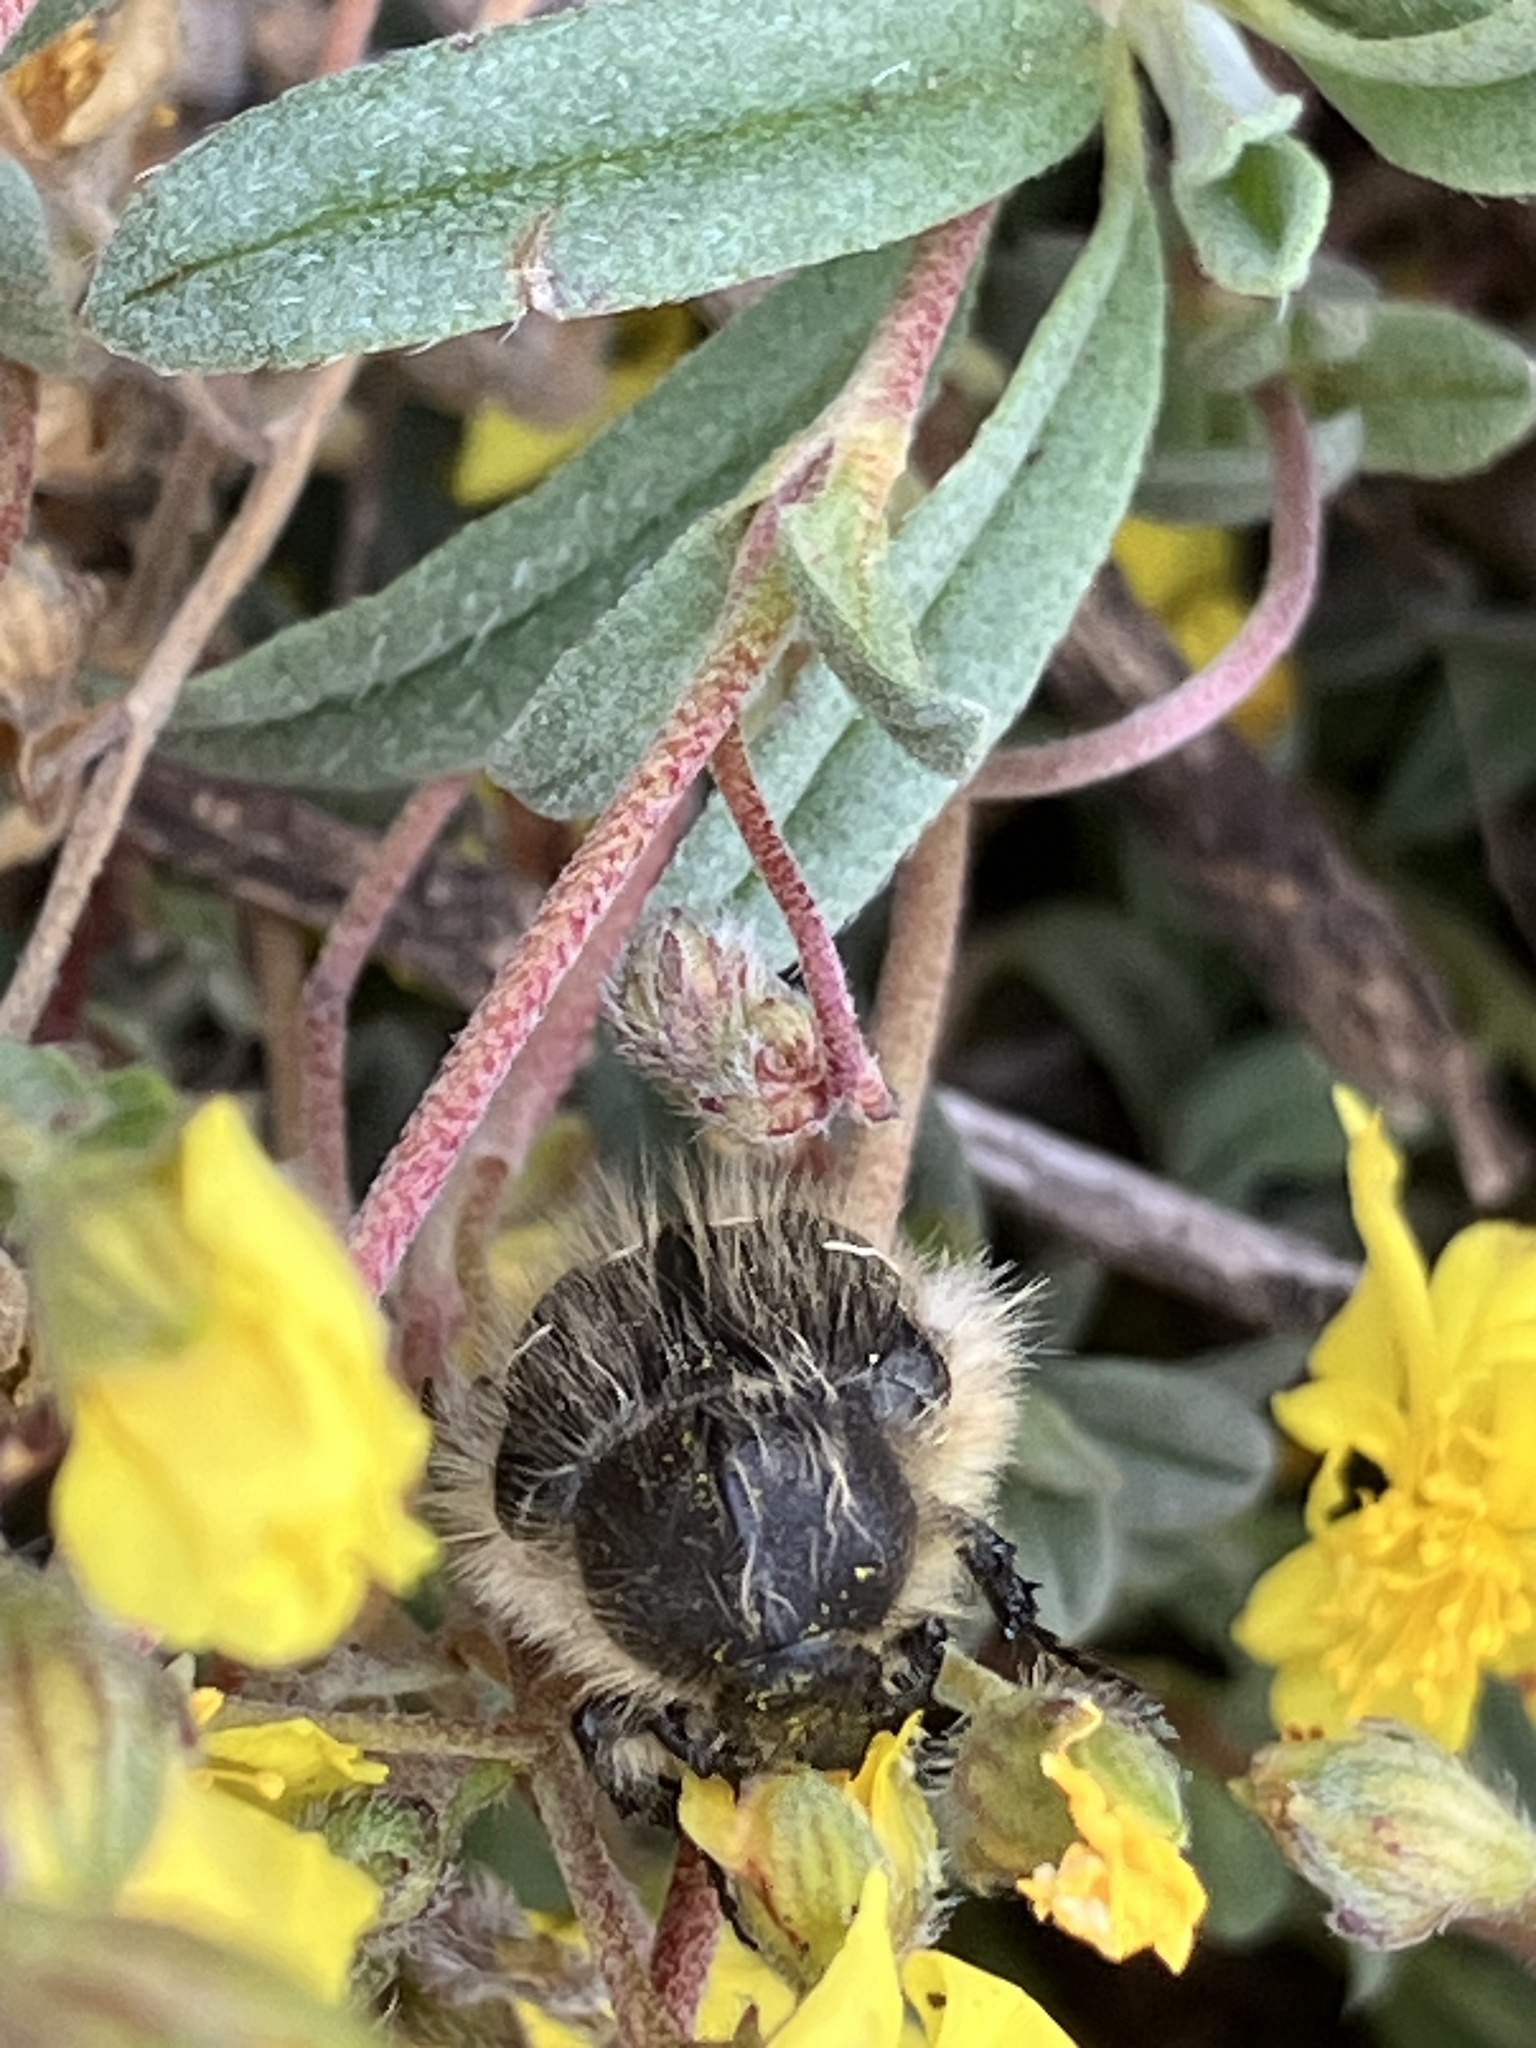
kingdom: Animalia
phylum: Arthropoda
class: Insecta
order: Coleoptera
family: Scarabaeidae
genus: Tropinota
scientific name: Tropinota hirta
